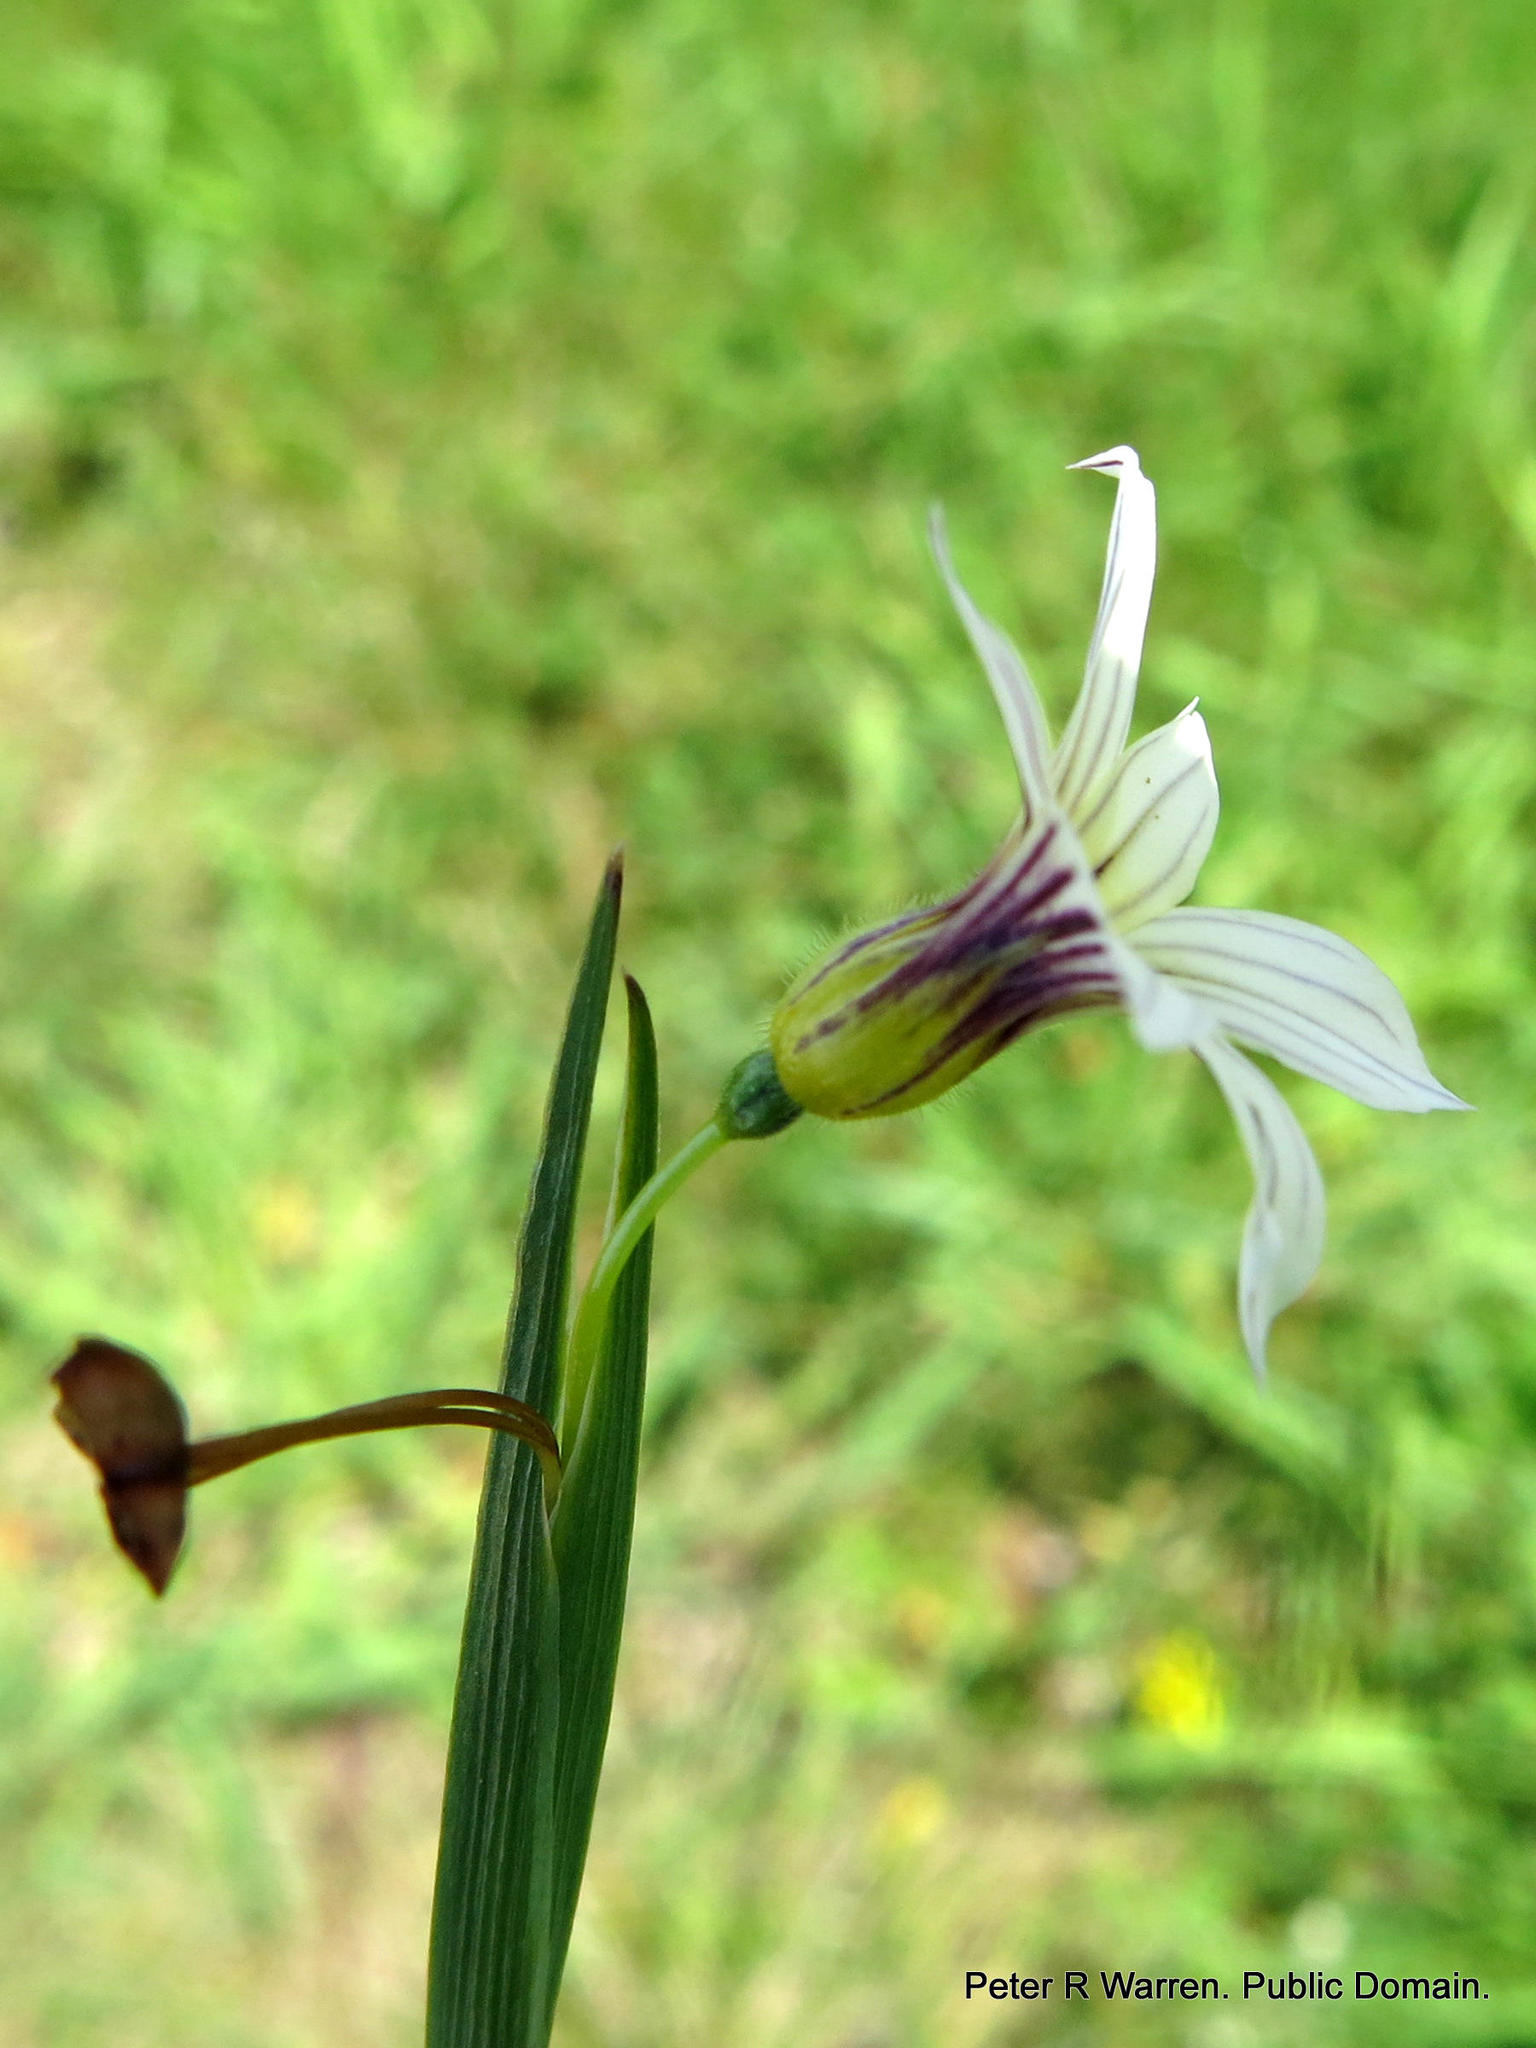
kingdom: Plantae
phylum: Tracheophyta
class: Liliopsida
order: Asparagales
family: Iridaceae
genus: Sisyrinchium
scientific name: Sisyrinchium micranthum
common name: Bermuda pigroot
